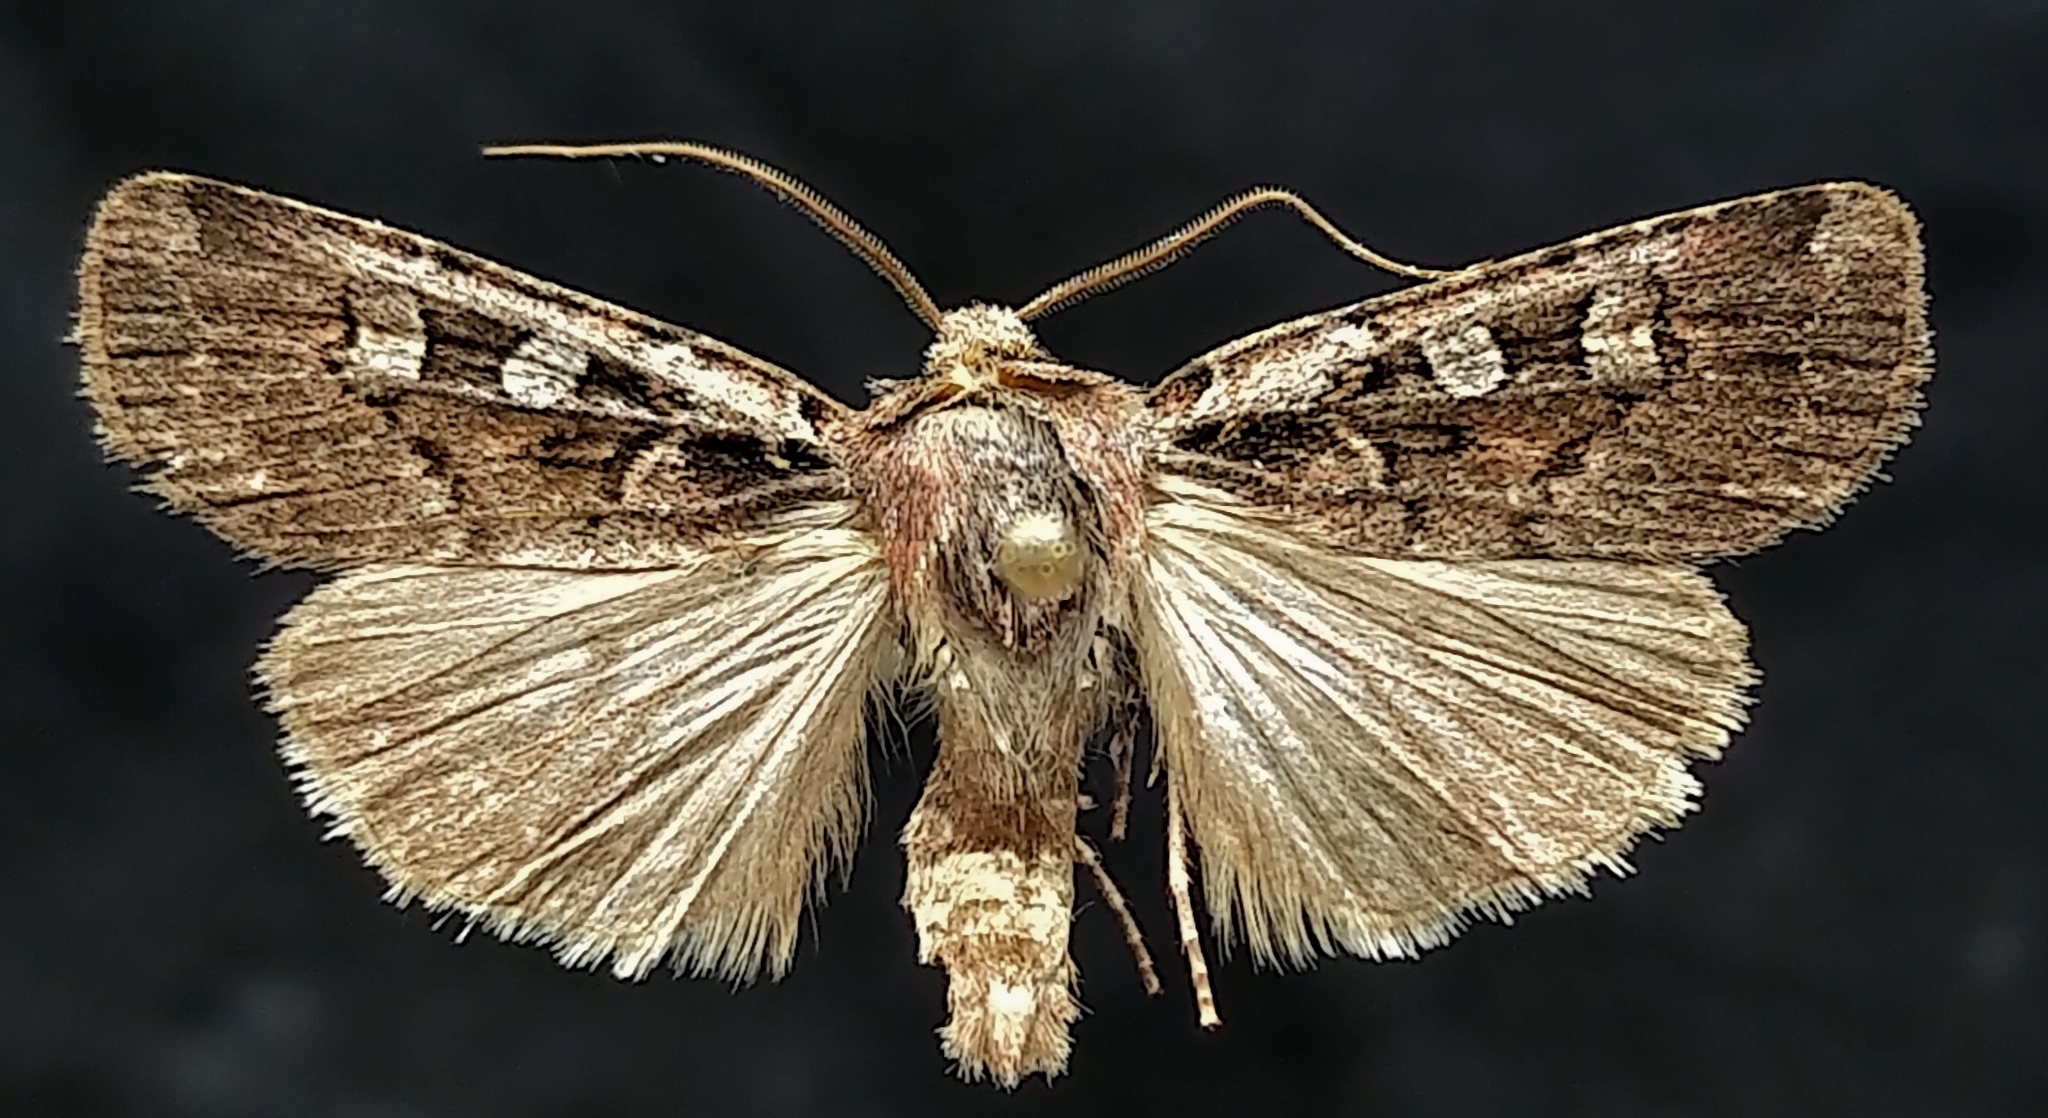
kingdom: Animalia
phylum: Arthropoda
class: Insecta
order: Lepidoptera
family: Noctuidae
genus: Euxoa
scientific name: Euxoa sinelinea
